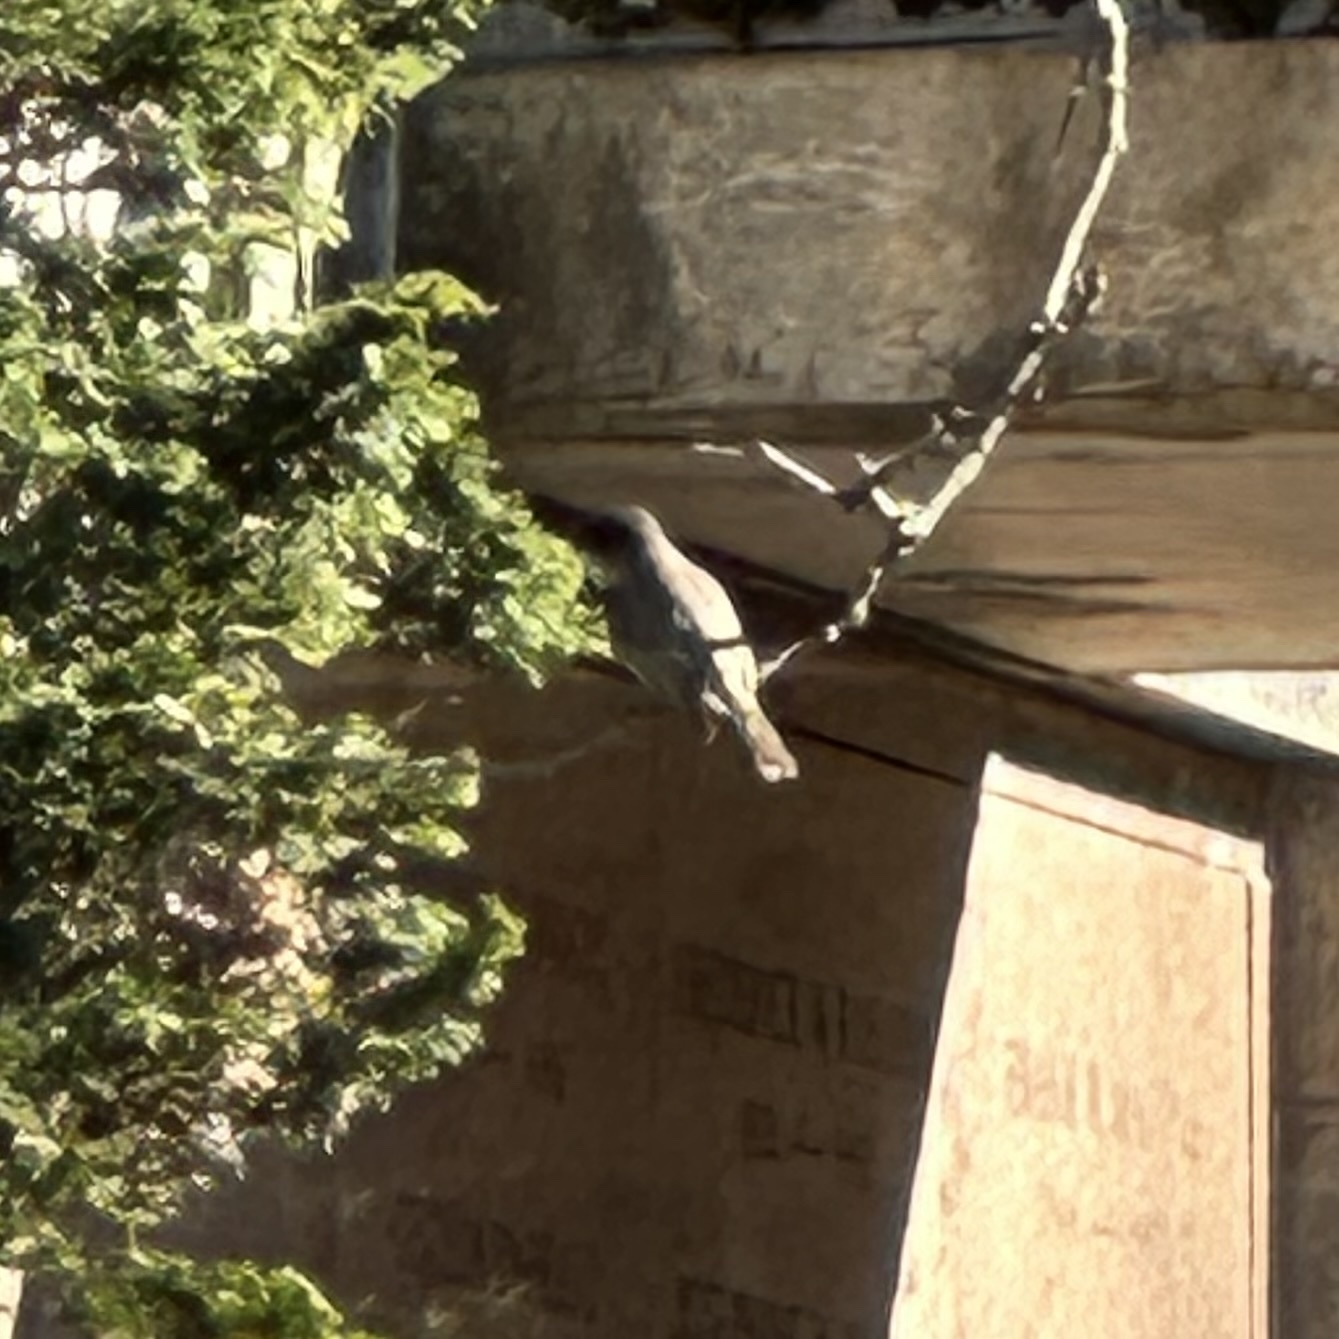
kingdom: Animalia
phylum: Chordata
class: Aves
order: Passeriformes
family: Tyrannidae
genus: Sayornis
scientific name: Sayornis phoebe
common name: Eastern phoebe
